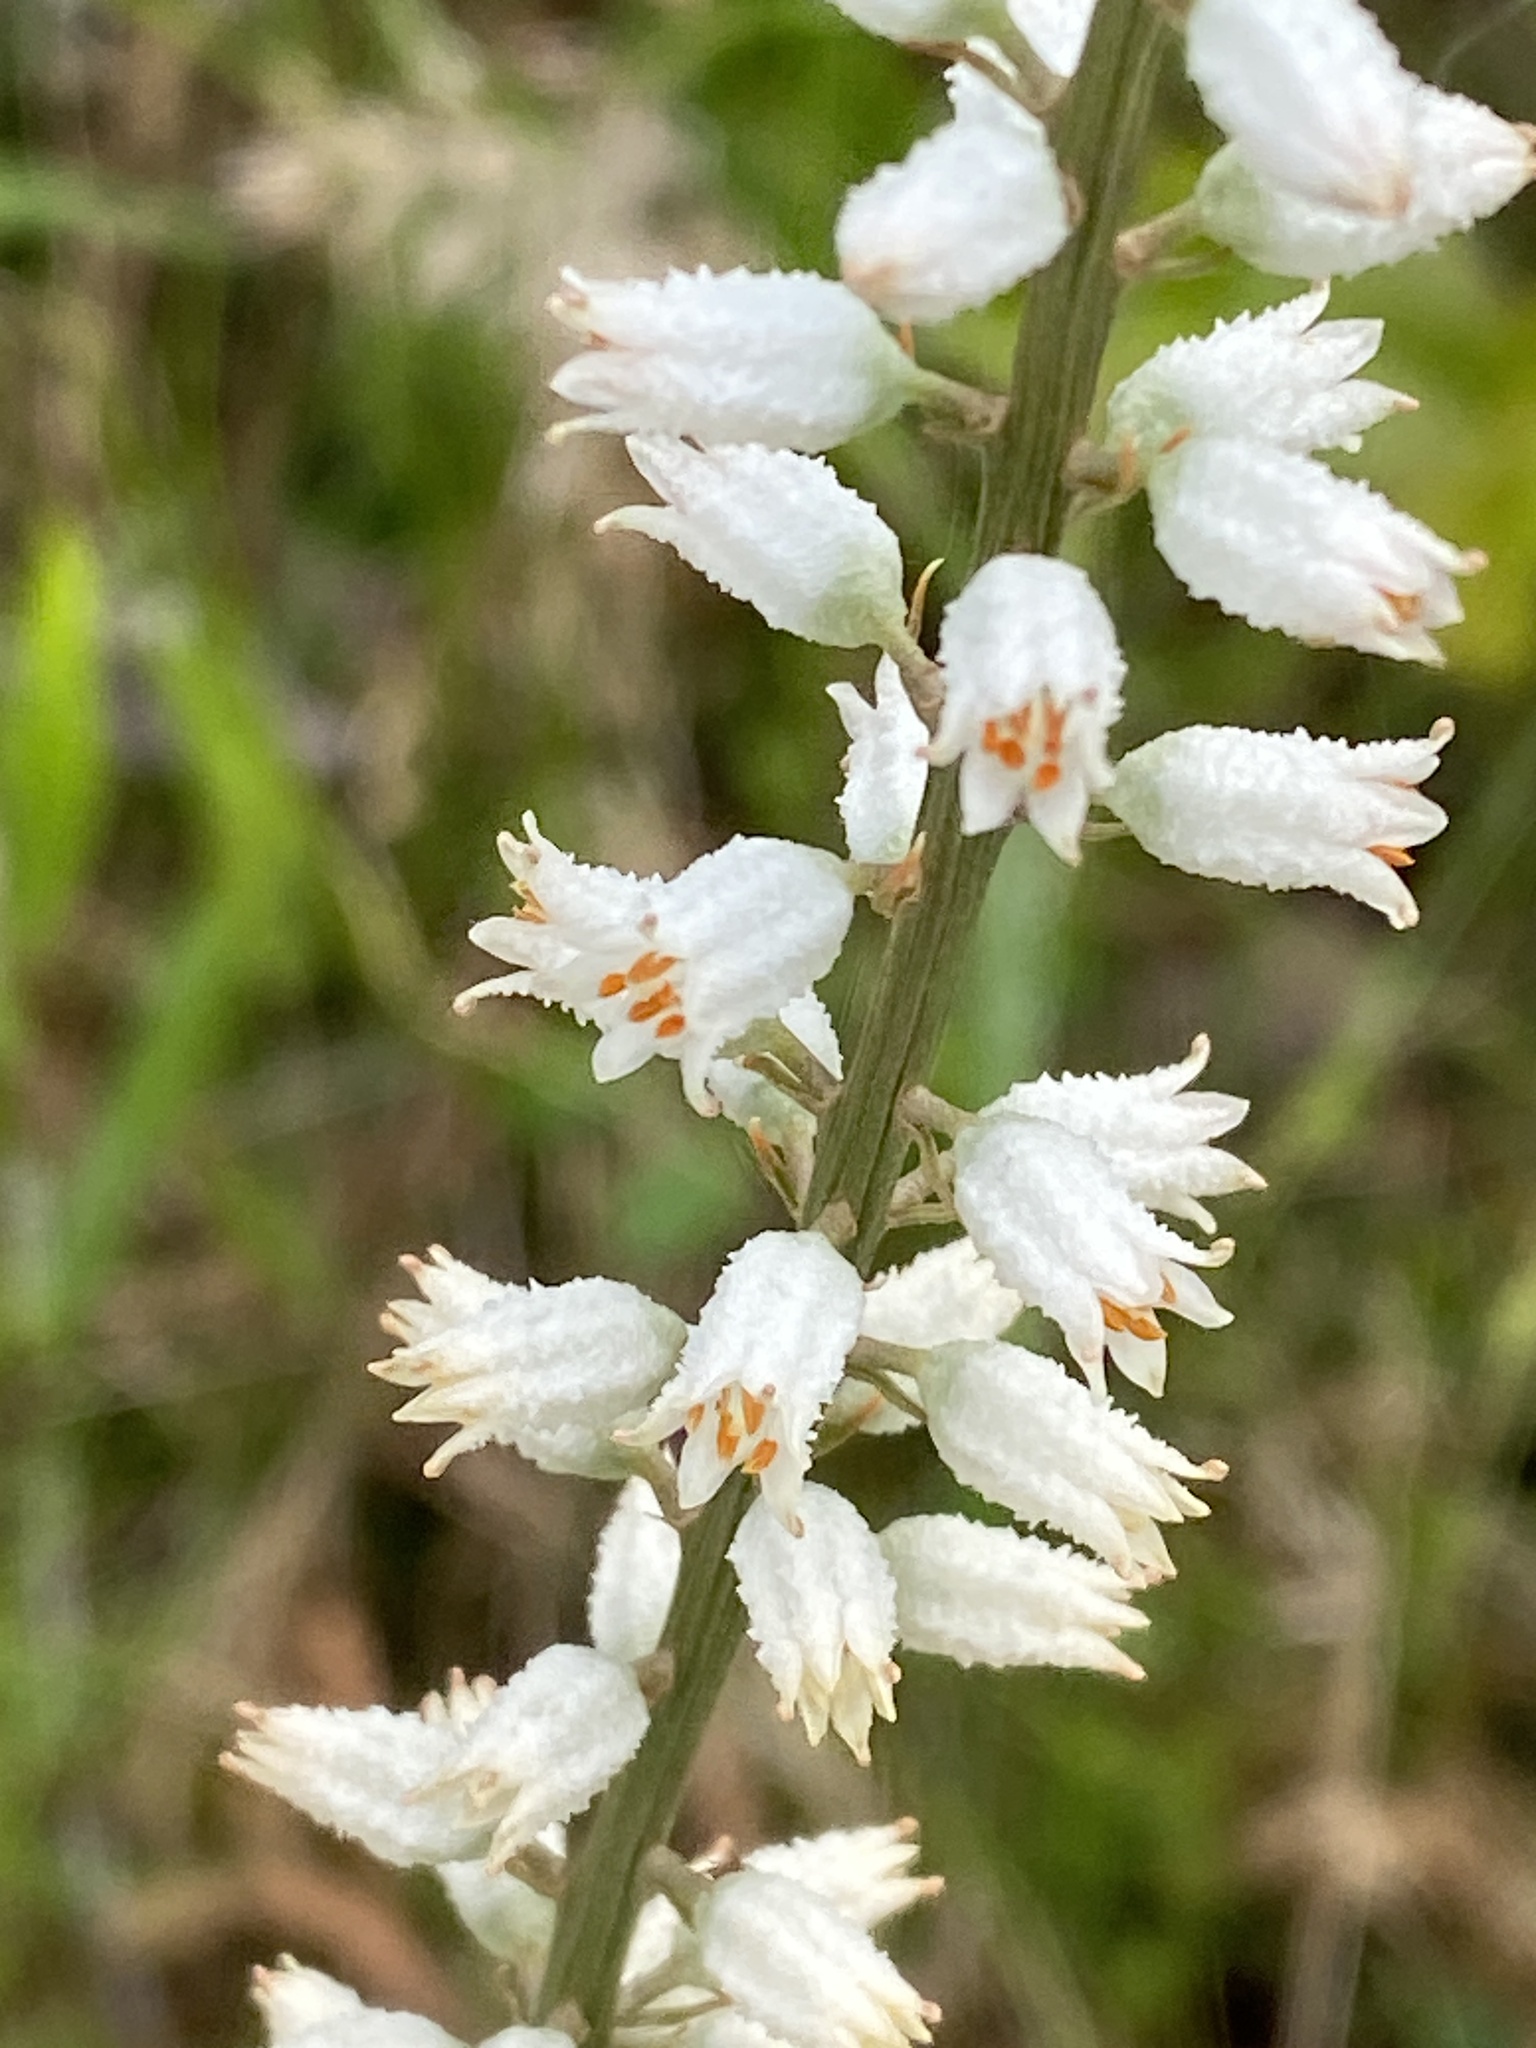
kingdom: Plantae
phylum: Tracheophyta
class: Liliopsida
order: Dioscoreales
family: Nartheciaceae
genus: Aletris
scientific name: Aletris farinosa
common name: Colicroot
